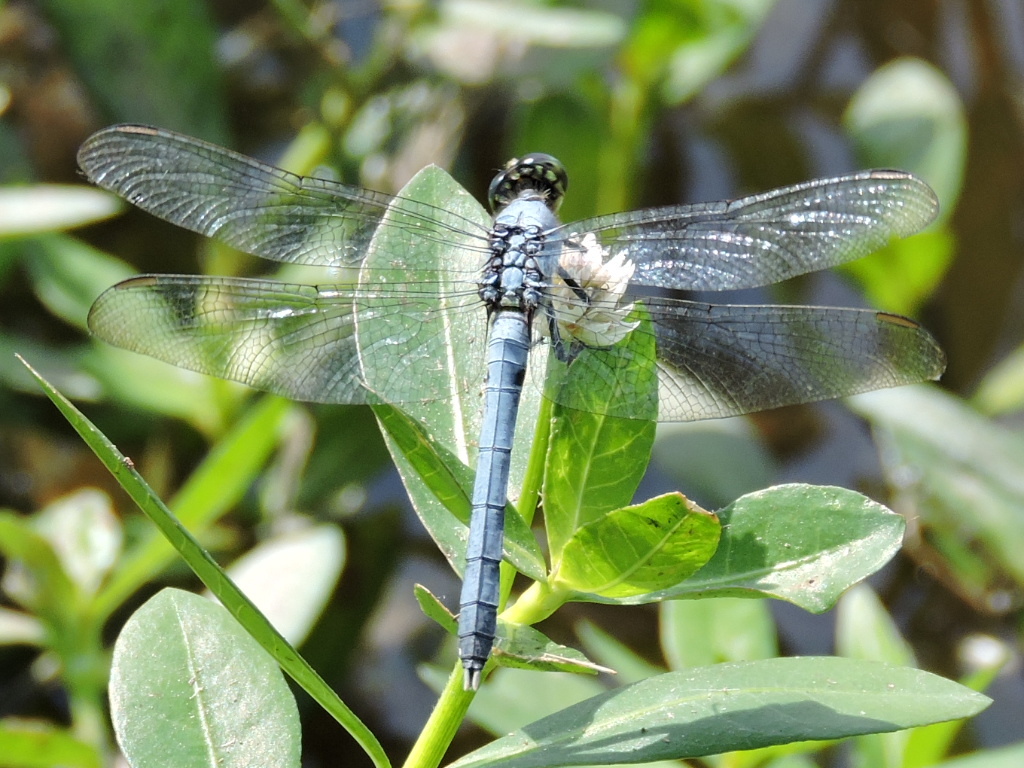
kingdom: Animalia
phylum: Arthropoda
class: Insecta
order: Odonata
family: Libellulidae
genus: Erythemis
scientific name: Erythemis simplicicollis
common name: Eastern pondhawk
